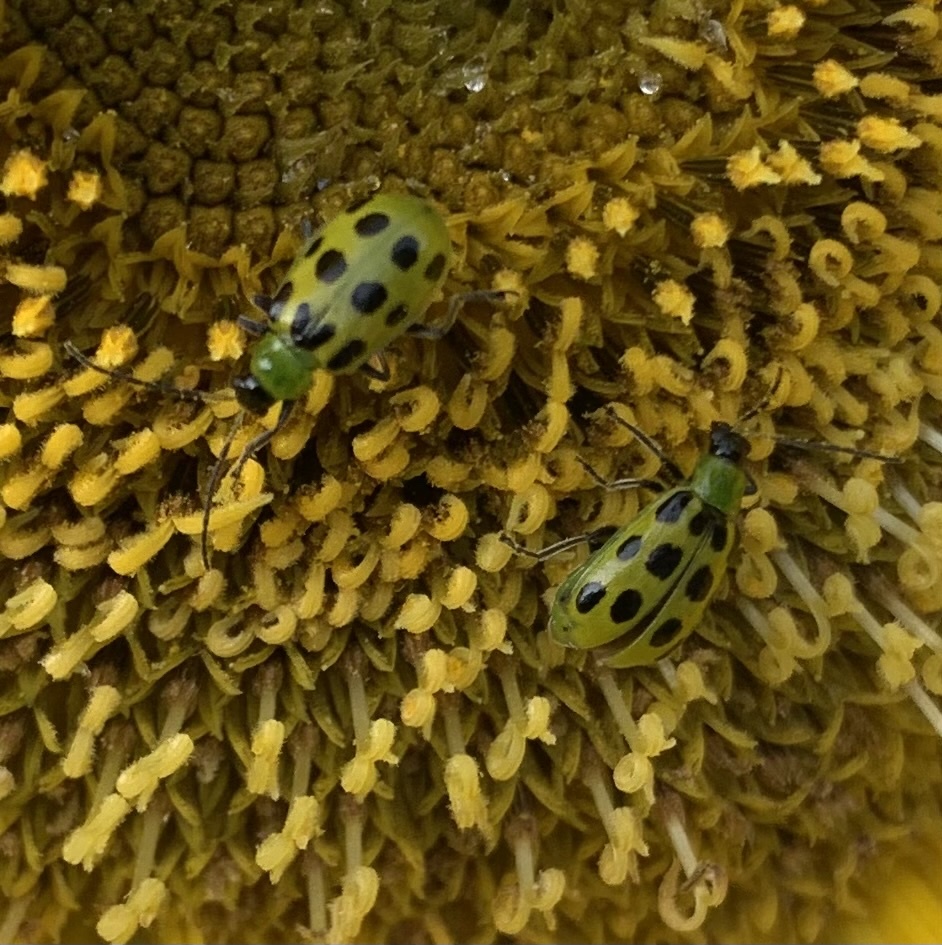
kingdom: Animalia
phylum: Arthropoda
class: Insecta
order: Coleoptera
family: Chrysomelidae
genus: Diabrotica
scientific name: Diabrotica undecimpunctata
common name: Spotted cucumber beetle
